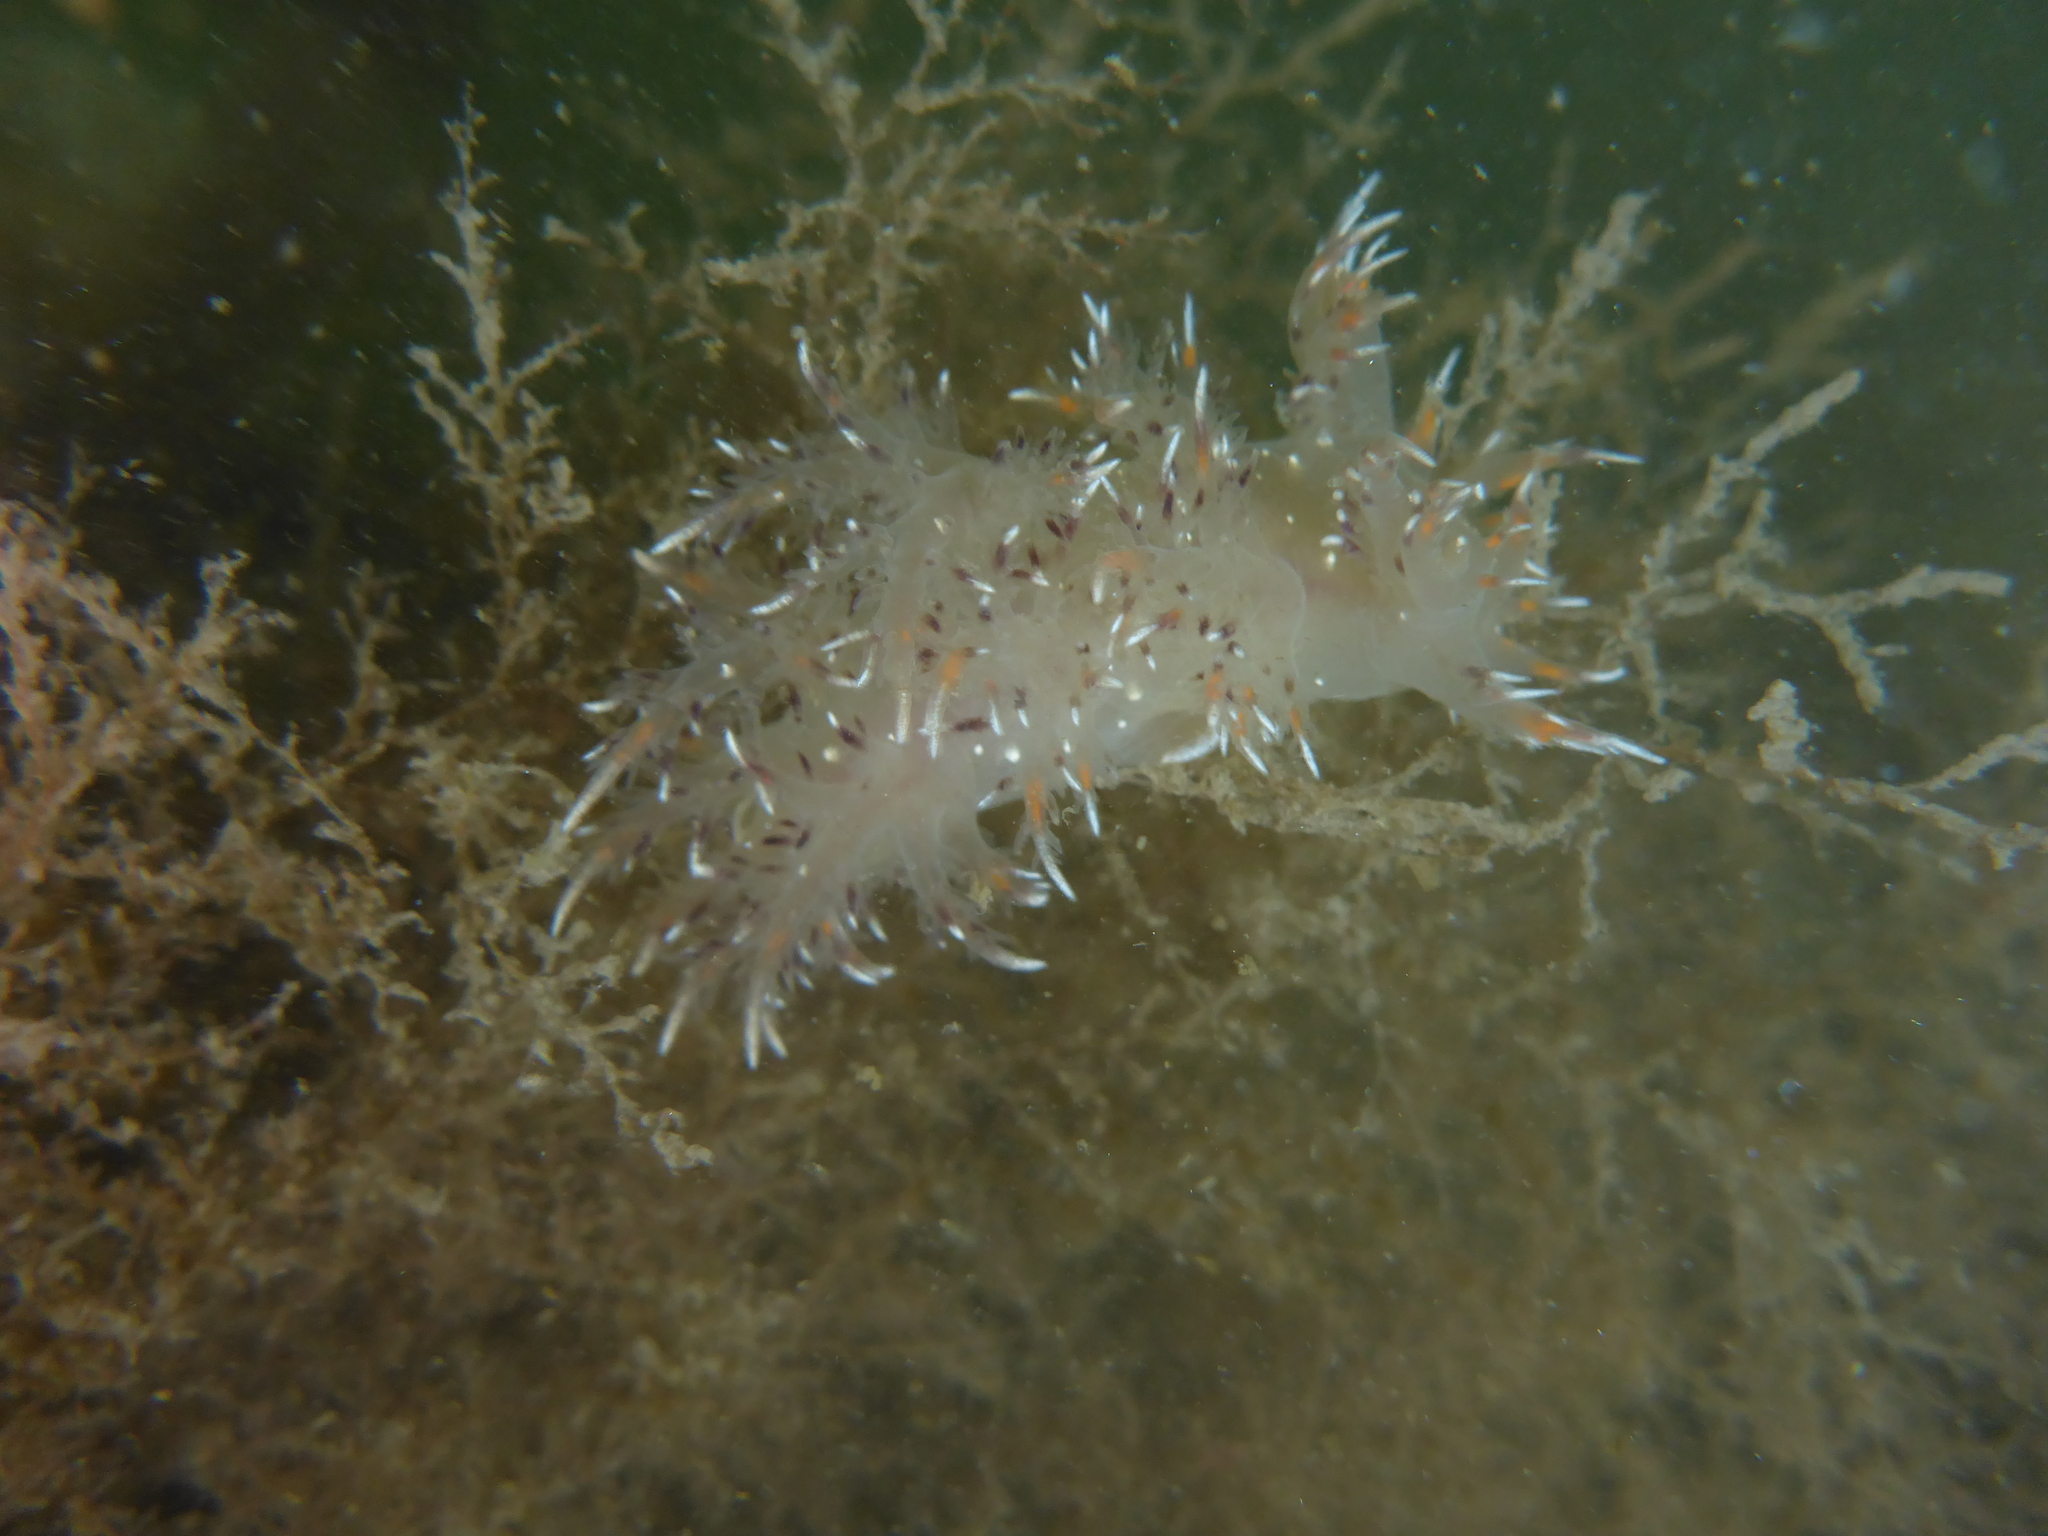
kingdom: Animalia
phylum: Mollusca
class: Gastropoda
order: Nudibranchia
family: Dendronotidae
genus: Dendronotus
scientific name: Dendronotus iris
